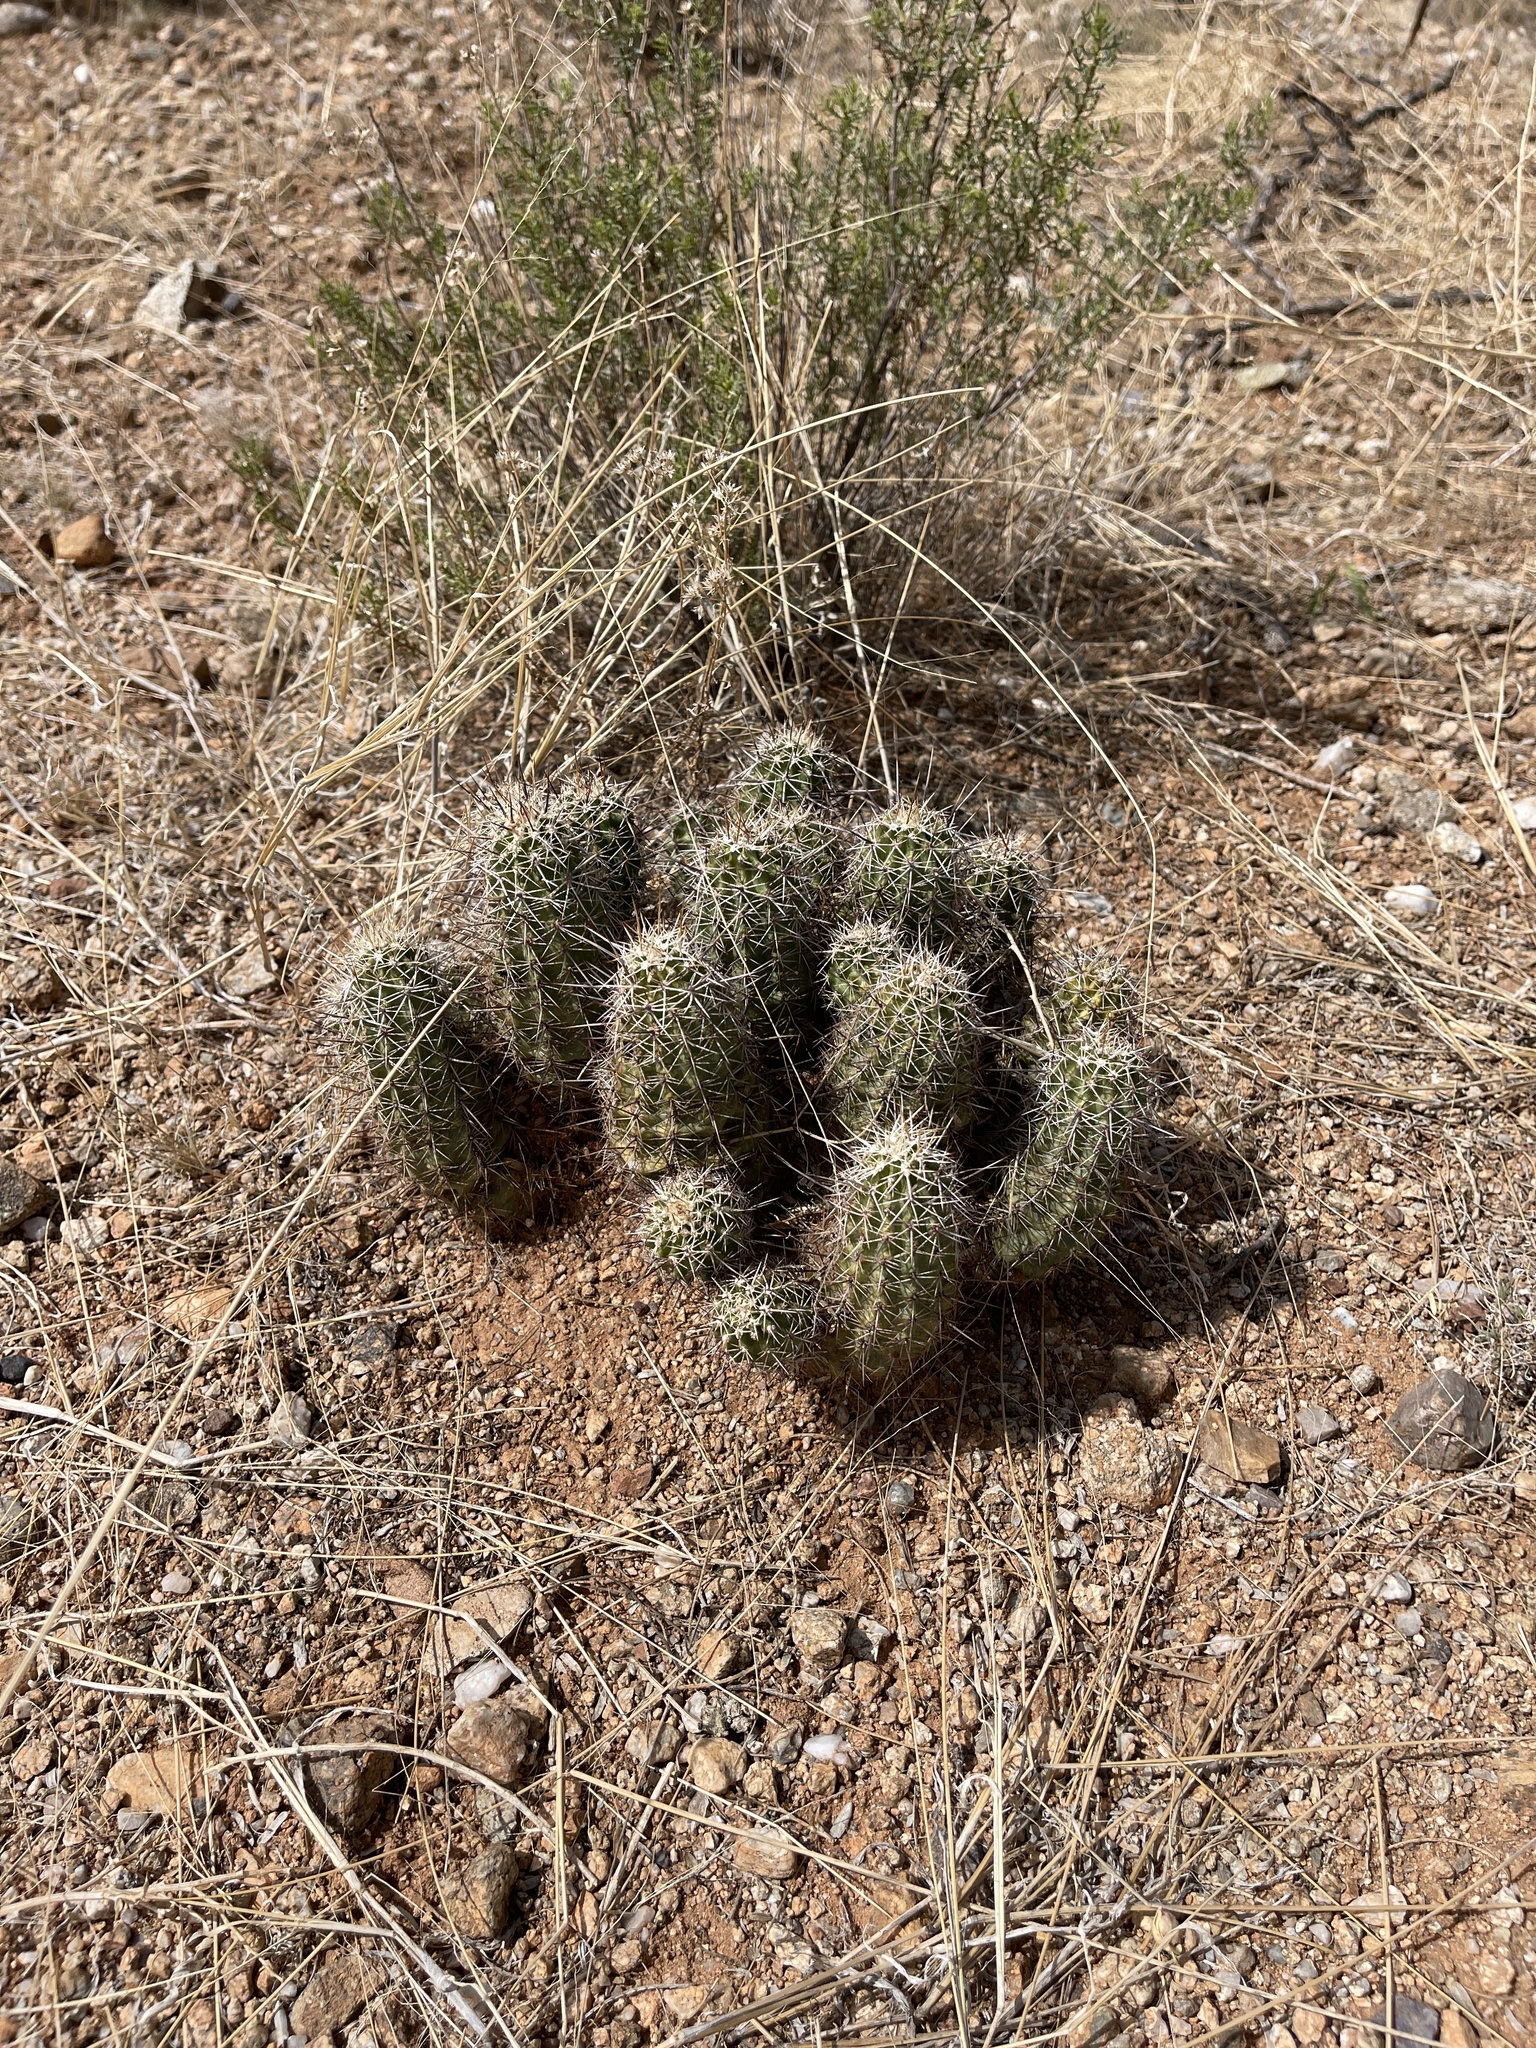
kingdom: Plantae
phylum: Tracheophyta
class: Magnoliopsida
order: Caryophyllales
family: Cactaceae
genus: Echinocereus
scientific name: Echinocereus fasciculatus
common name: Bundle hedgehog
